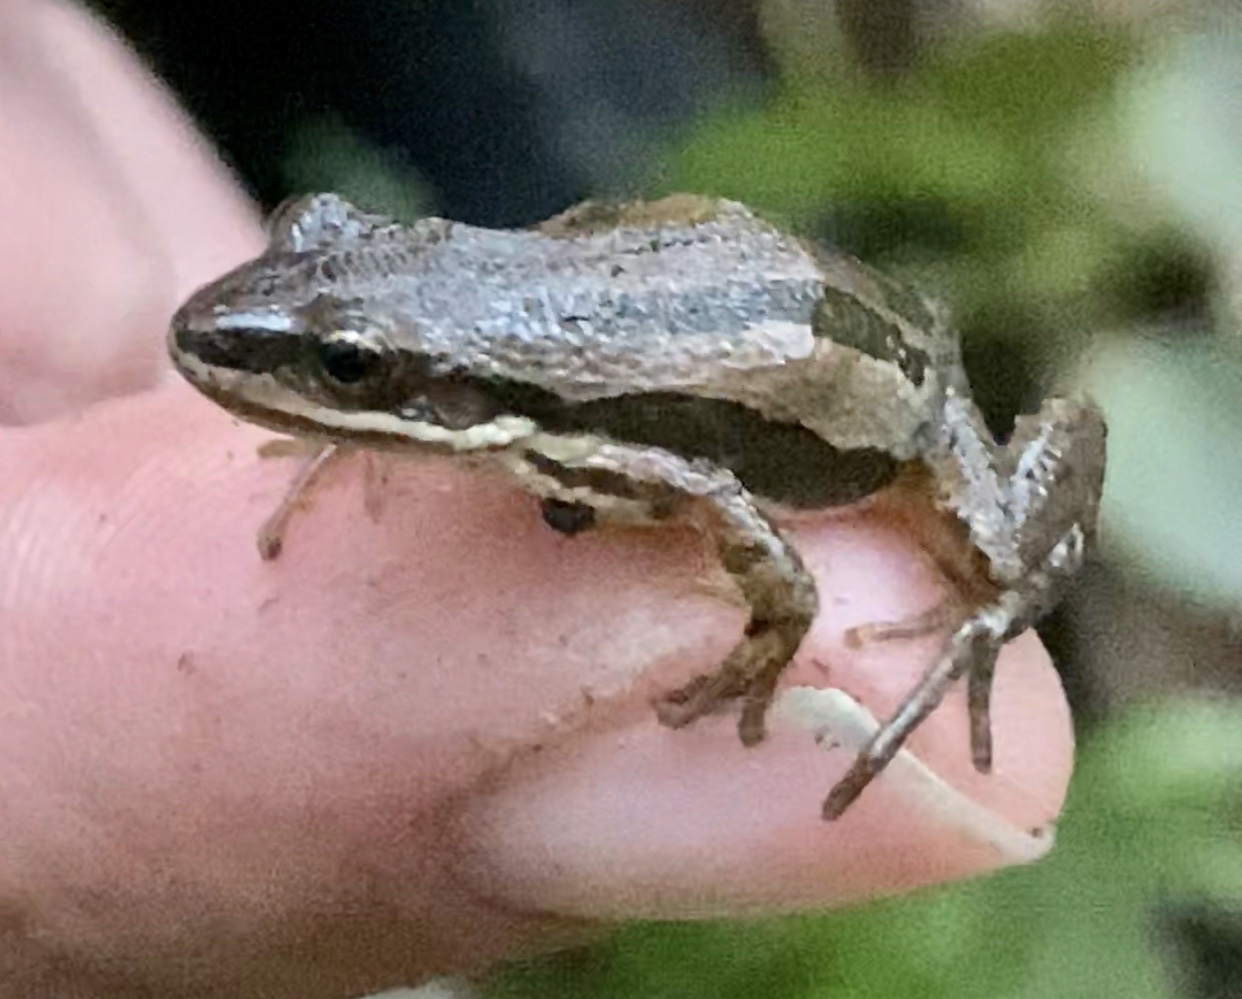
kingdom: Animalia
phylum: Chordata
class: Amphibia
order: Anura
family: Hylidae
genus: Pseudacris
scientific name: Pseudacris maculata
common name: Boreal chorus frog
